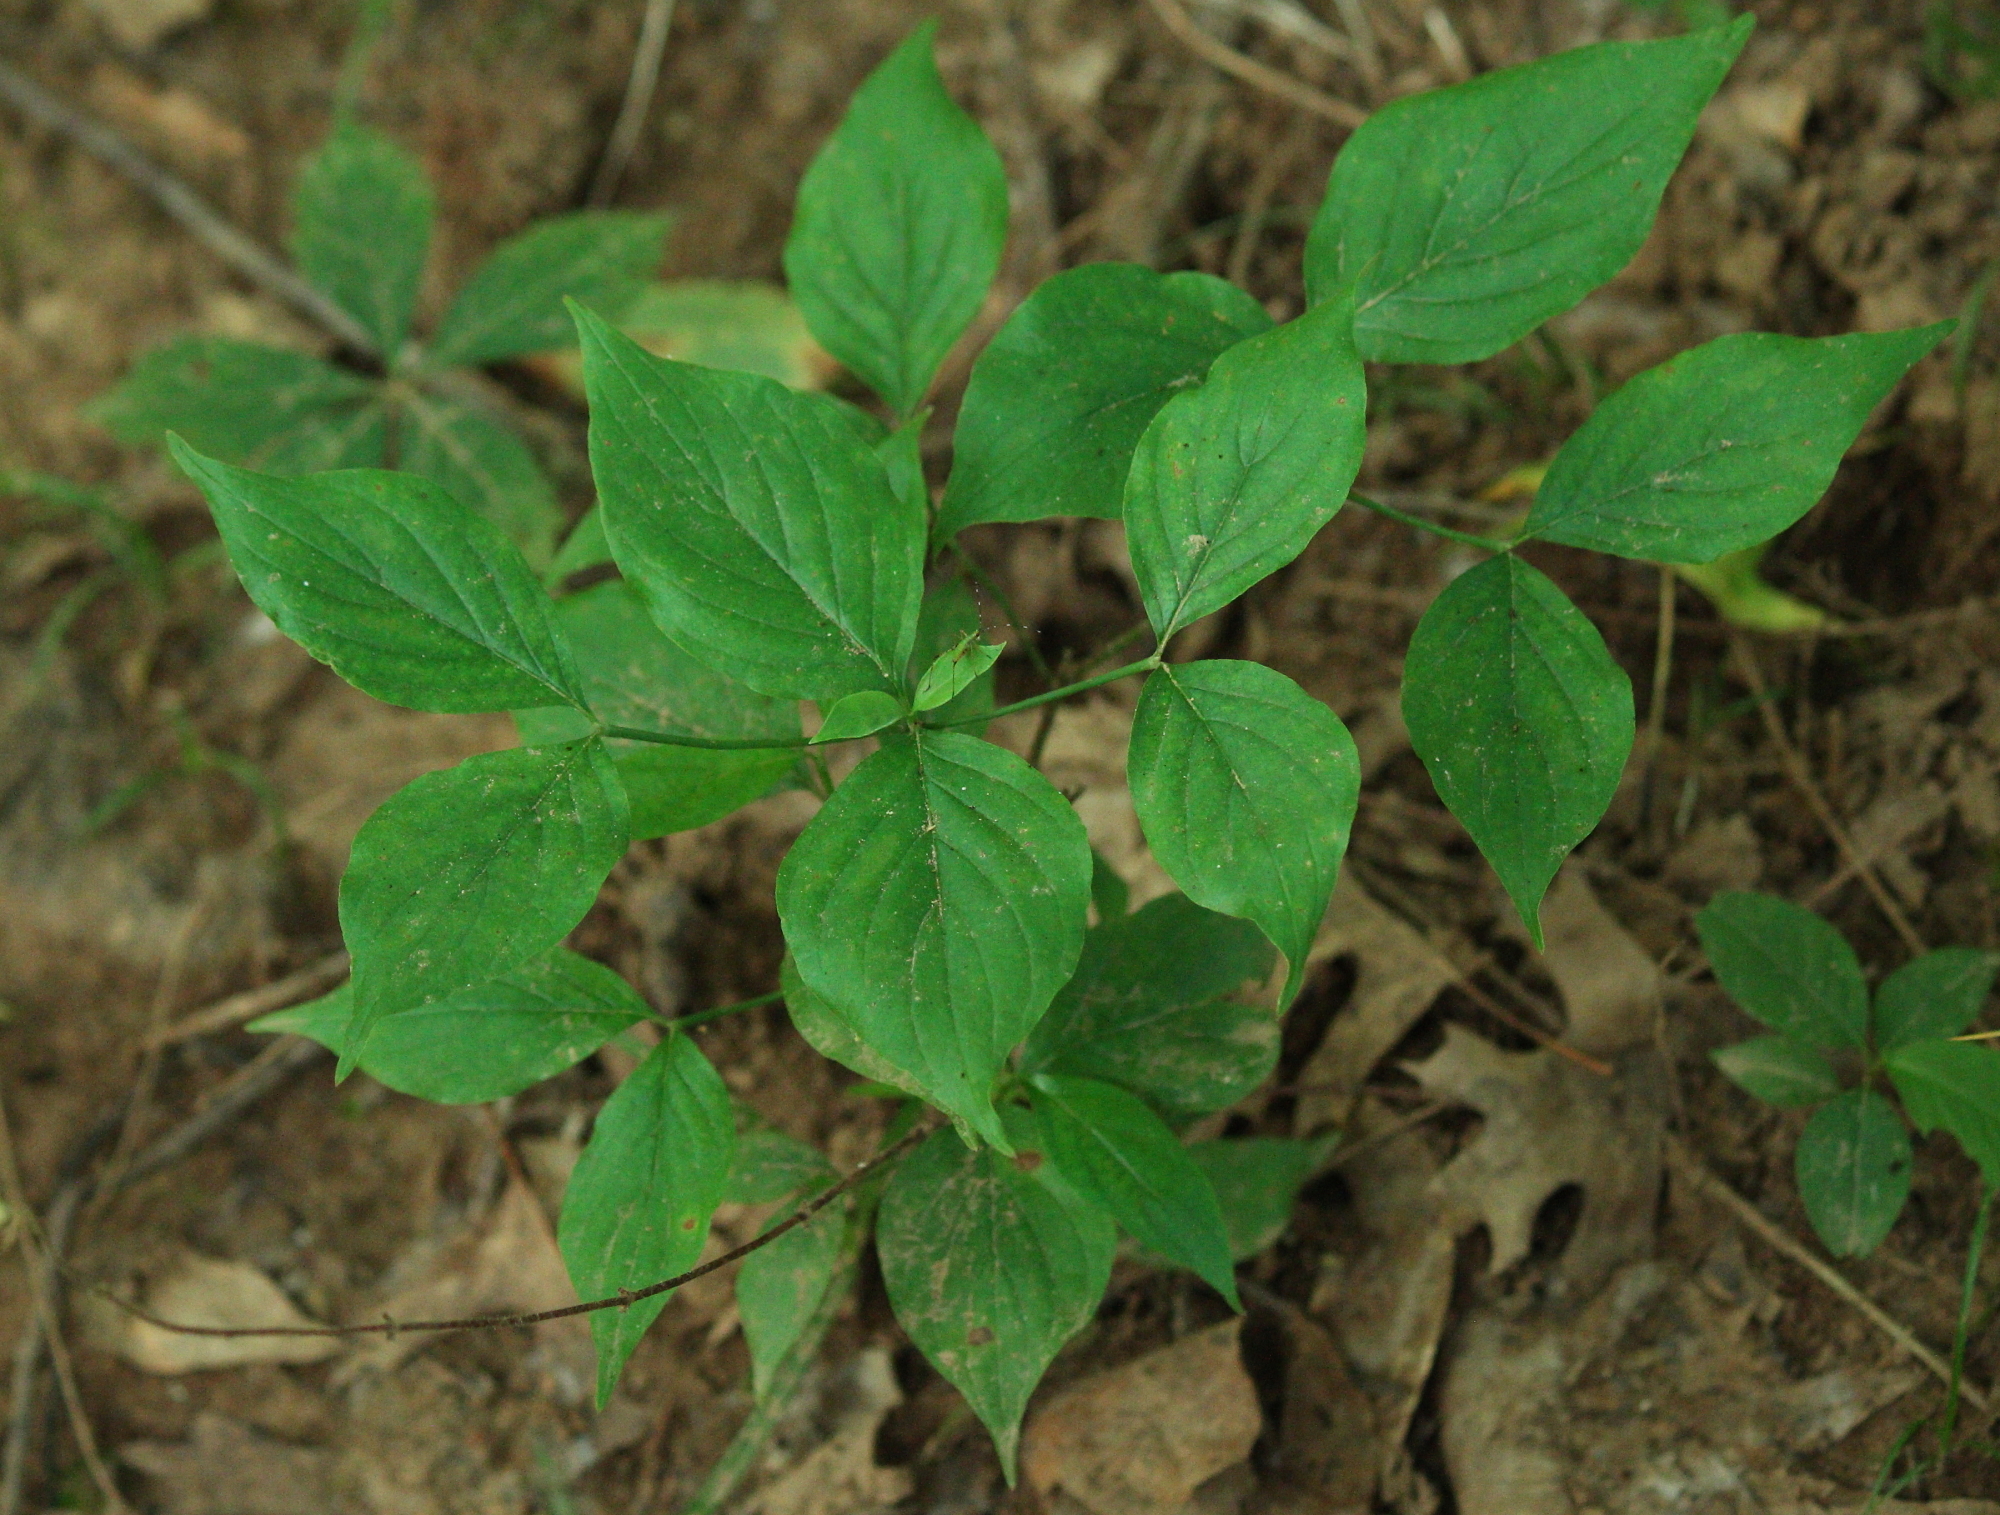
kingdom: Plantae
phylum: Tracheophyta
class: Magnoliopsida
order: Cornales
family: Cornaceae
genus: Cornus
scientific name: Cornus florida
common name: Flowering dogwood
